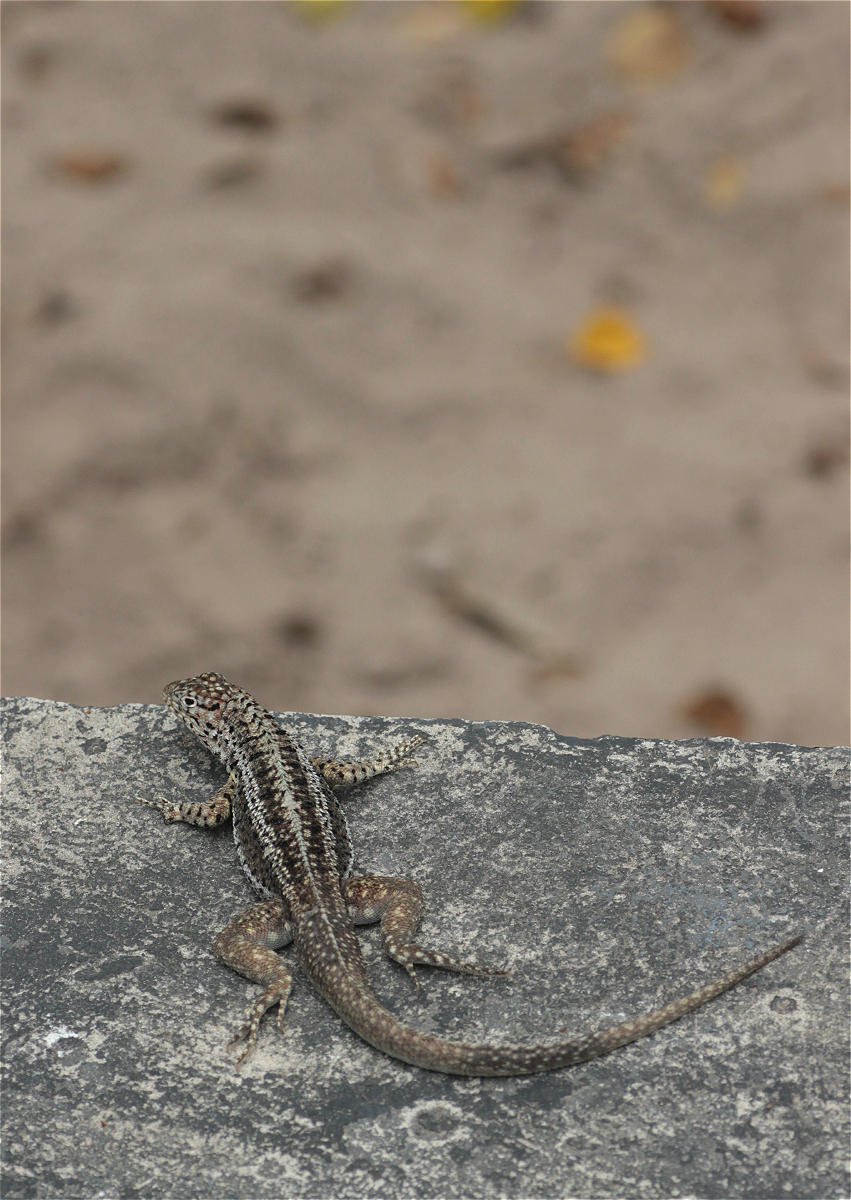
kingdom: Animalia
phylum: Chordata
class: Squamata
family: Tropiduridae
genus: Microlophus
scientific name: Microlophus albemarlensis
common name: Galapagos lava lizard
